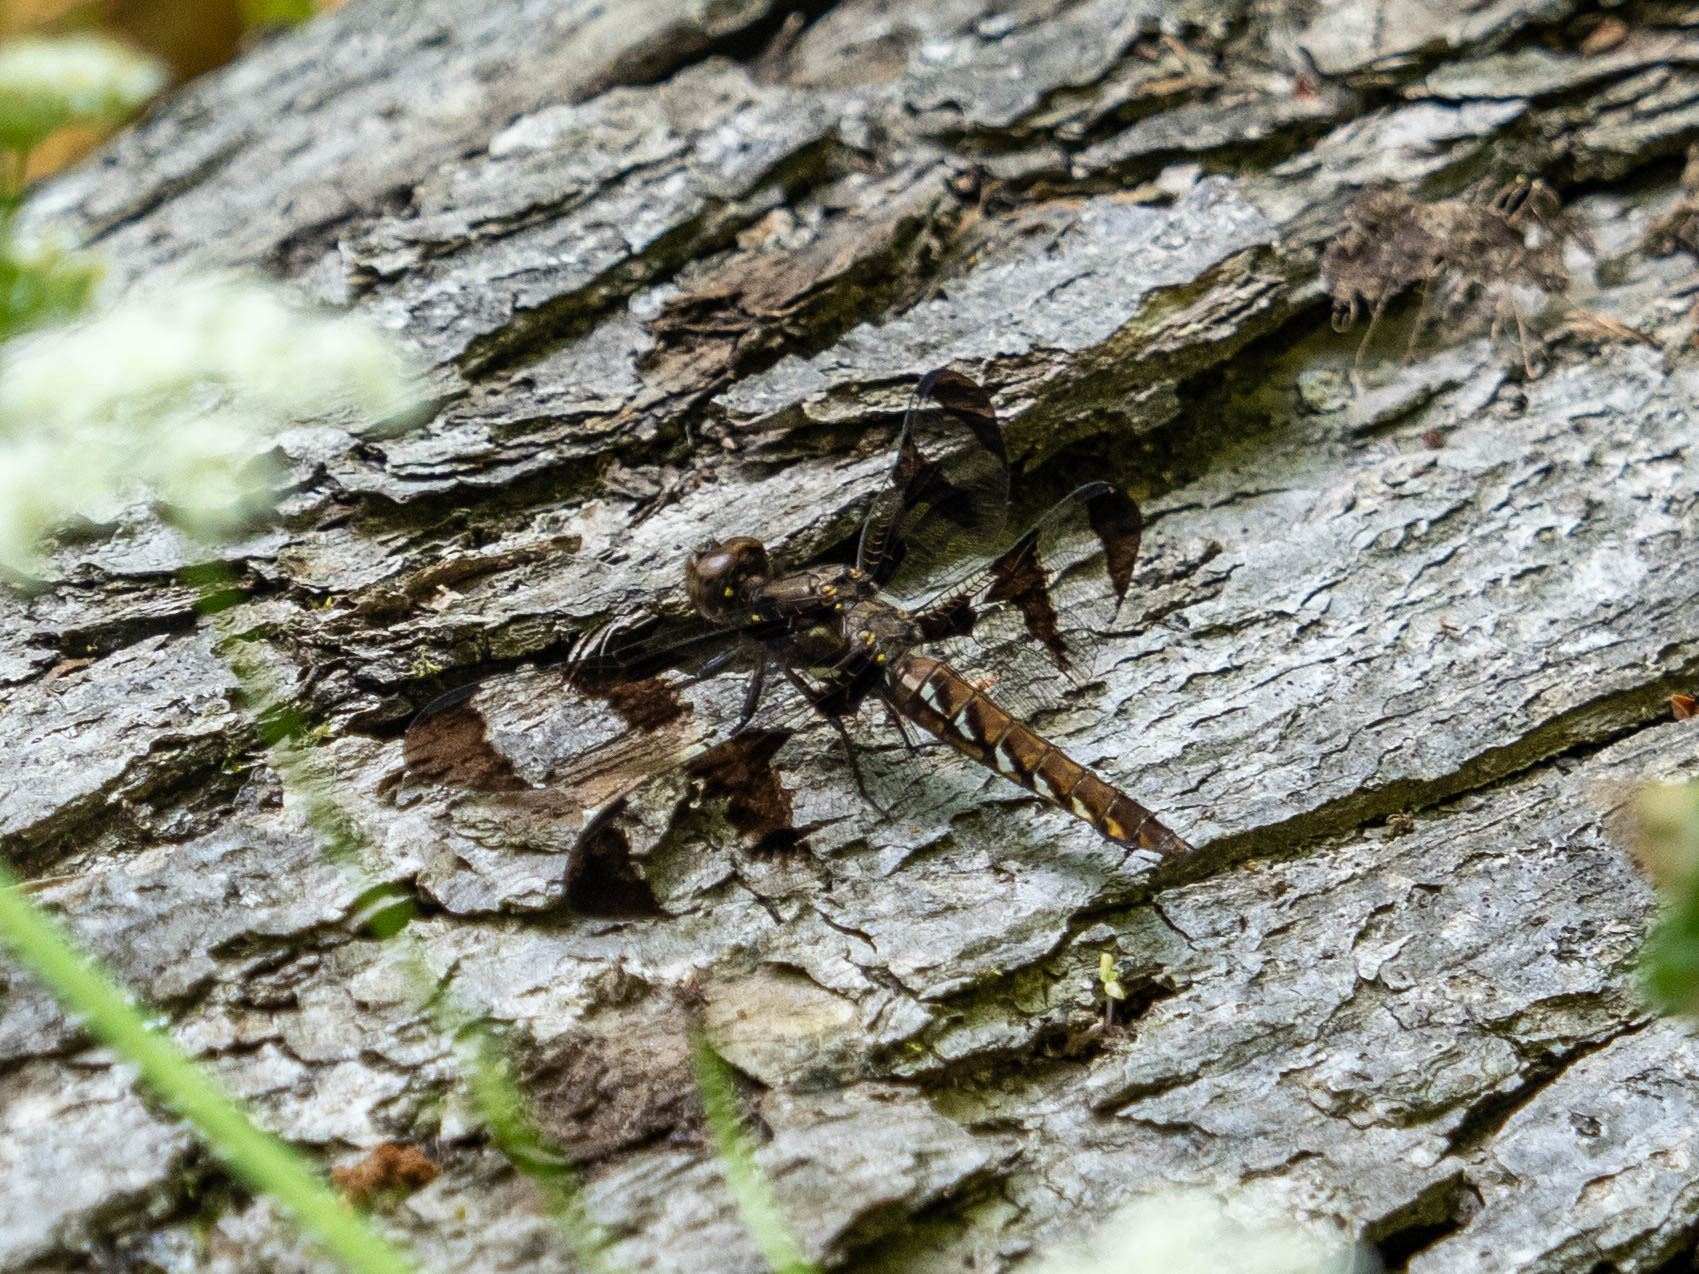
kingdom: Animalia
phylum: Arthropoda
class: Insecta
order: Odonata
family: Libellulidae
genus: Plathemis
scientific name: Plathemis lydia
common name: Common whitetail
